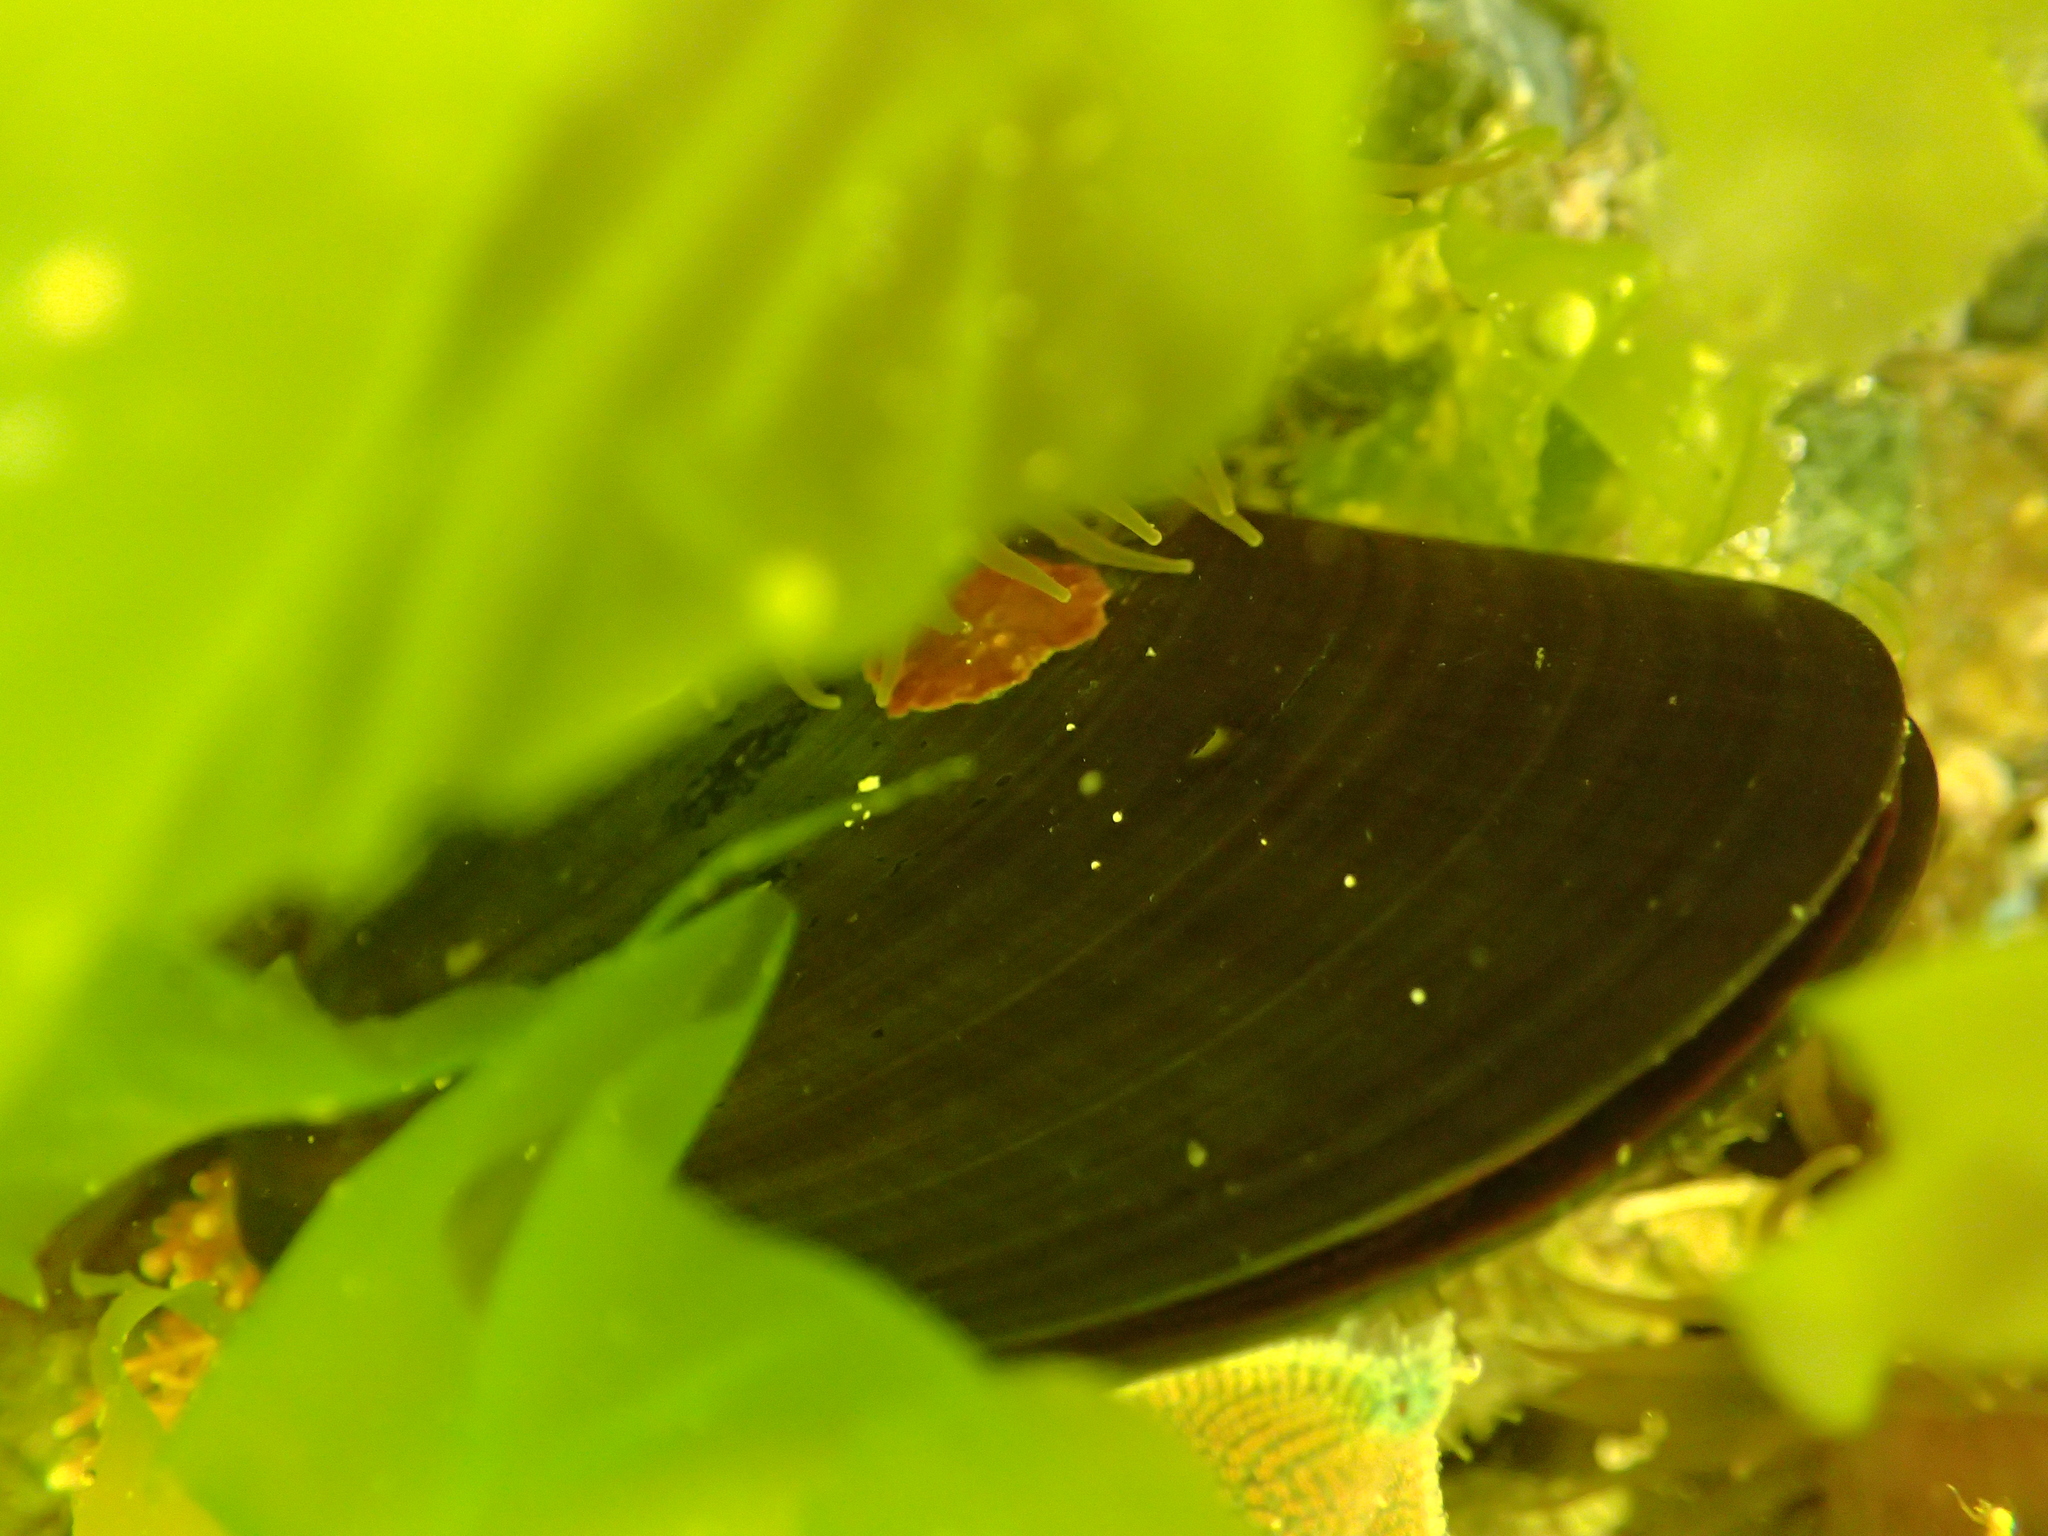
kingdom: Animalia
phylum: Mollusca
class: Bivalvia
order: Mytilida
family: Mytilidae
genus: Perna
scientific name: Perna canaliculus
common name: New zealand greenshelltm
